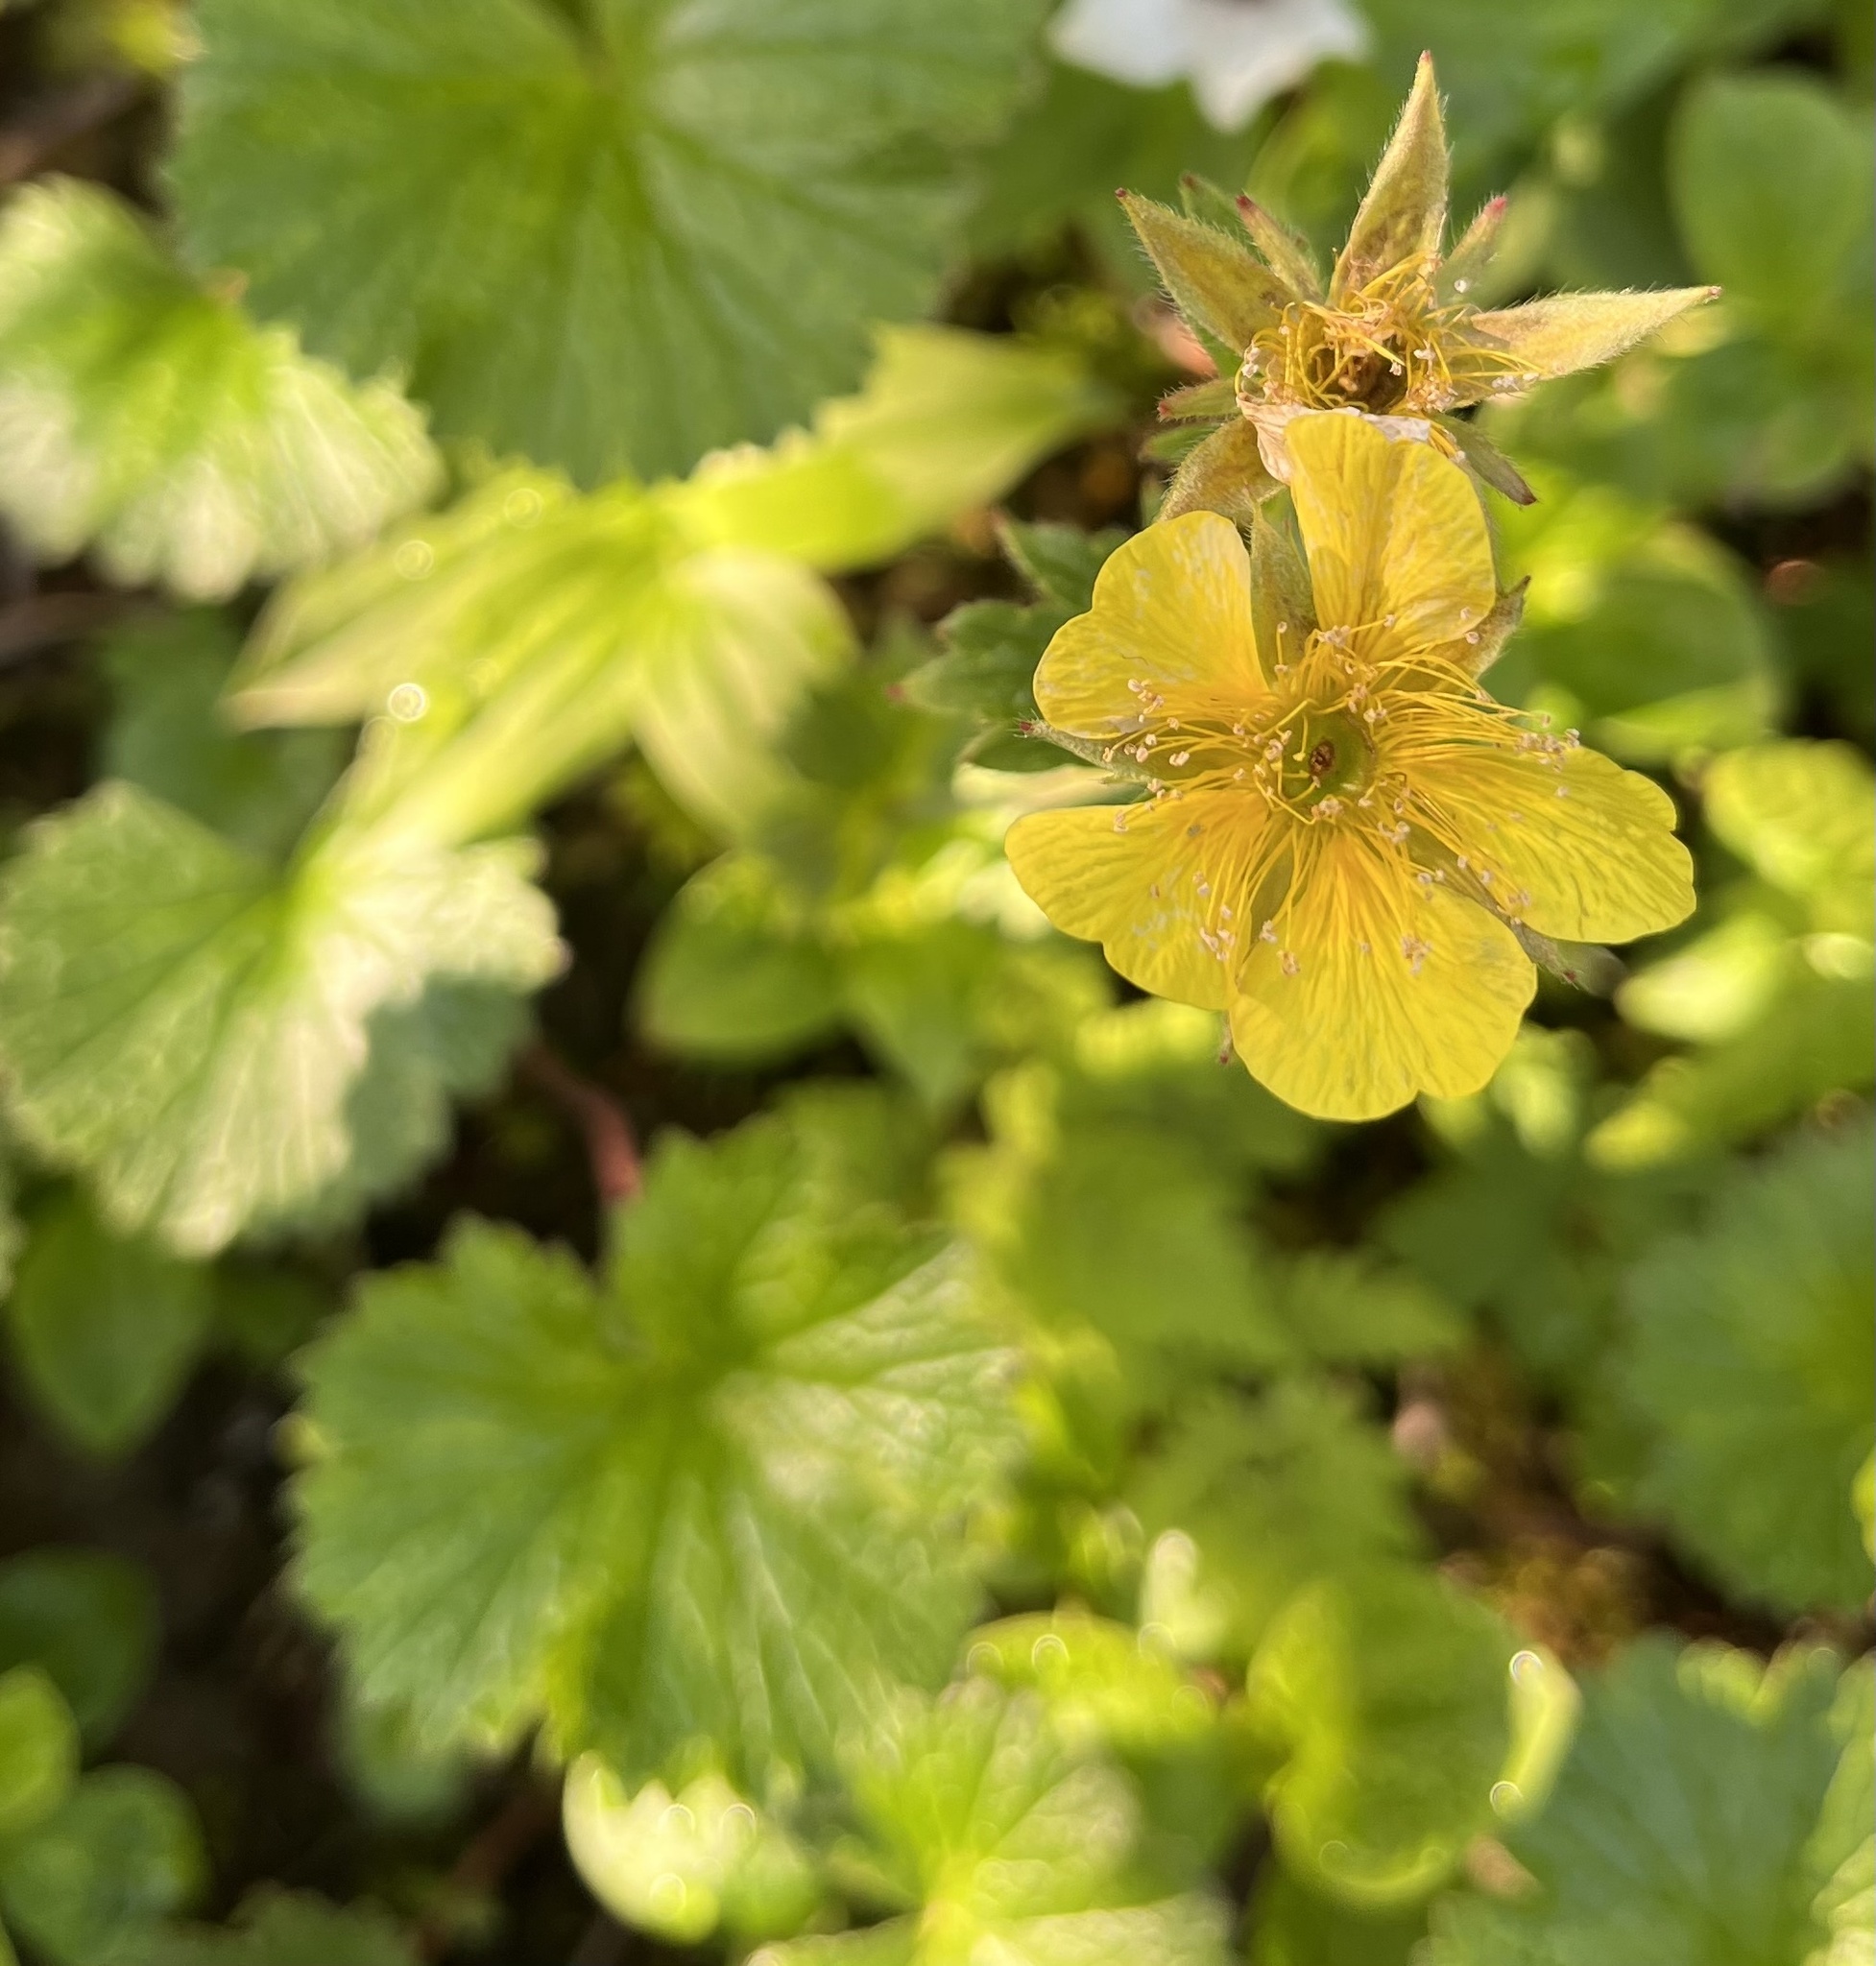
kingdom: Plantae
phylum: Tracheophyta
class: Magnoliopsida
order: Rosales
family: Rosaceae
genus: Geum
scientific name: Geum calthifolium
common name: Caltha-leaved avens
